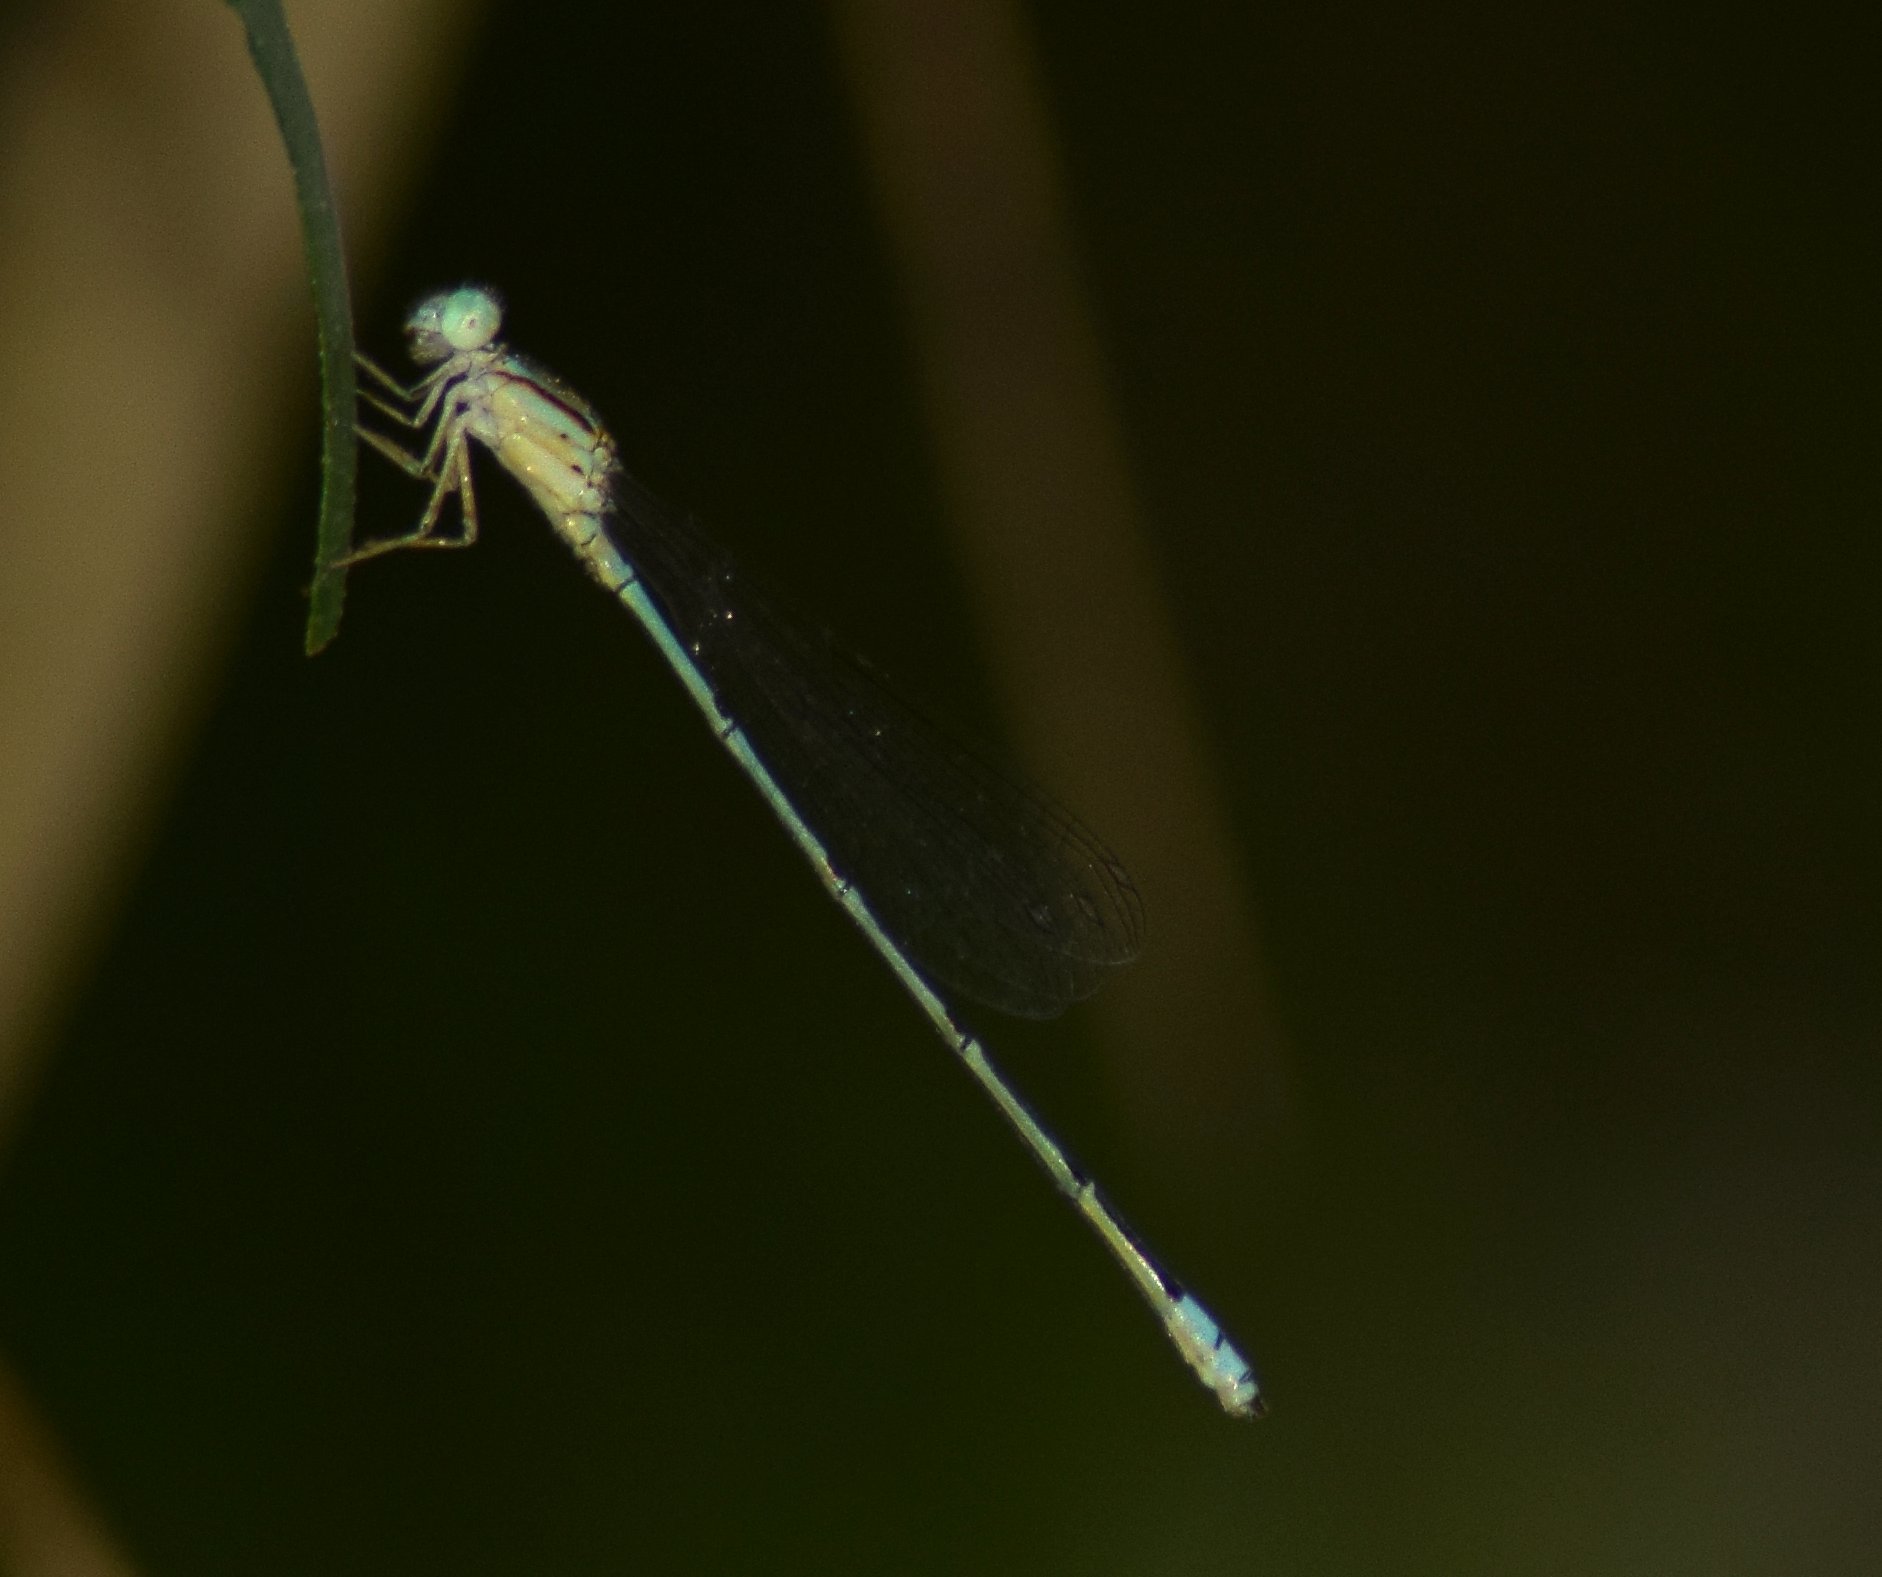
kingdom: Animalia
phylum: Arthropoda
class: Insecta
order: Odonata
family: Coenagrionidae
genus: Pseudagrion
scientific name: Pseudagrion microcephalum
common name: Blue riverdamsel
